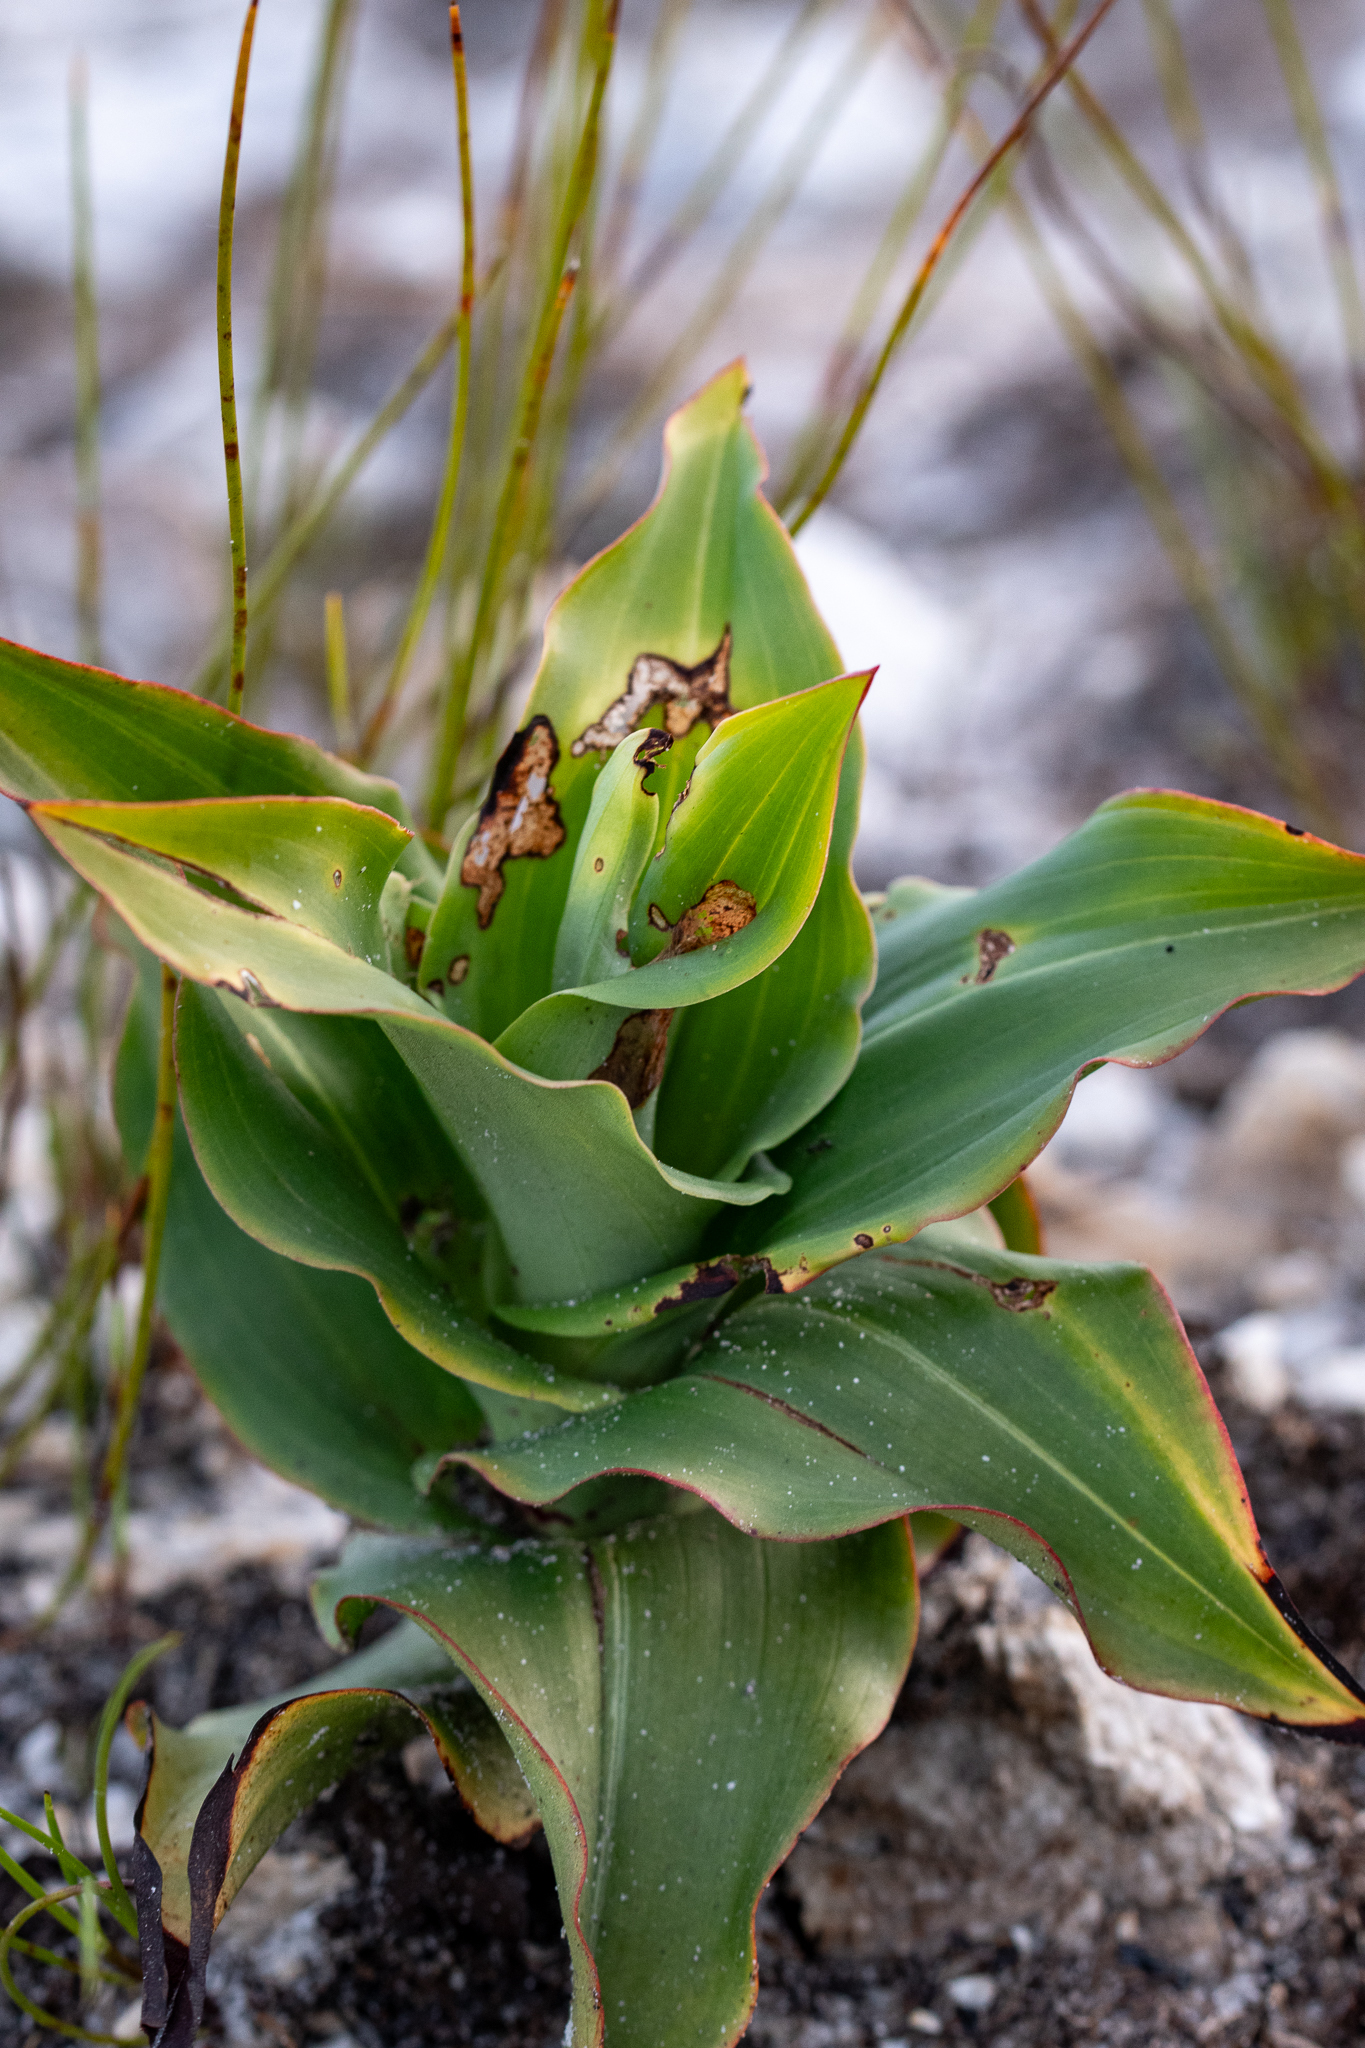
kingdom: Plantae
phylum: Tracheophyta
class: Liliopsida
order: Asparagales
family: Orchidaceae
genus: Disa
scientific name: Disa cornuta
